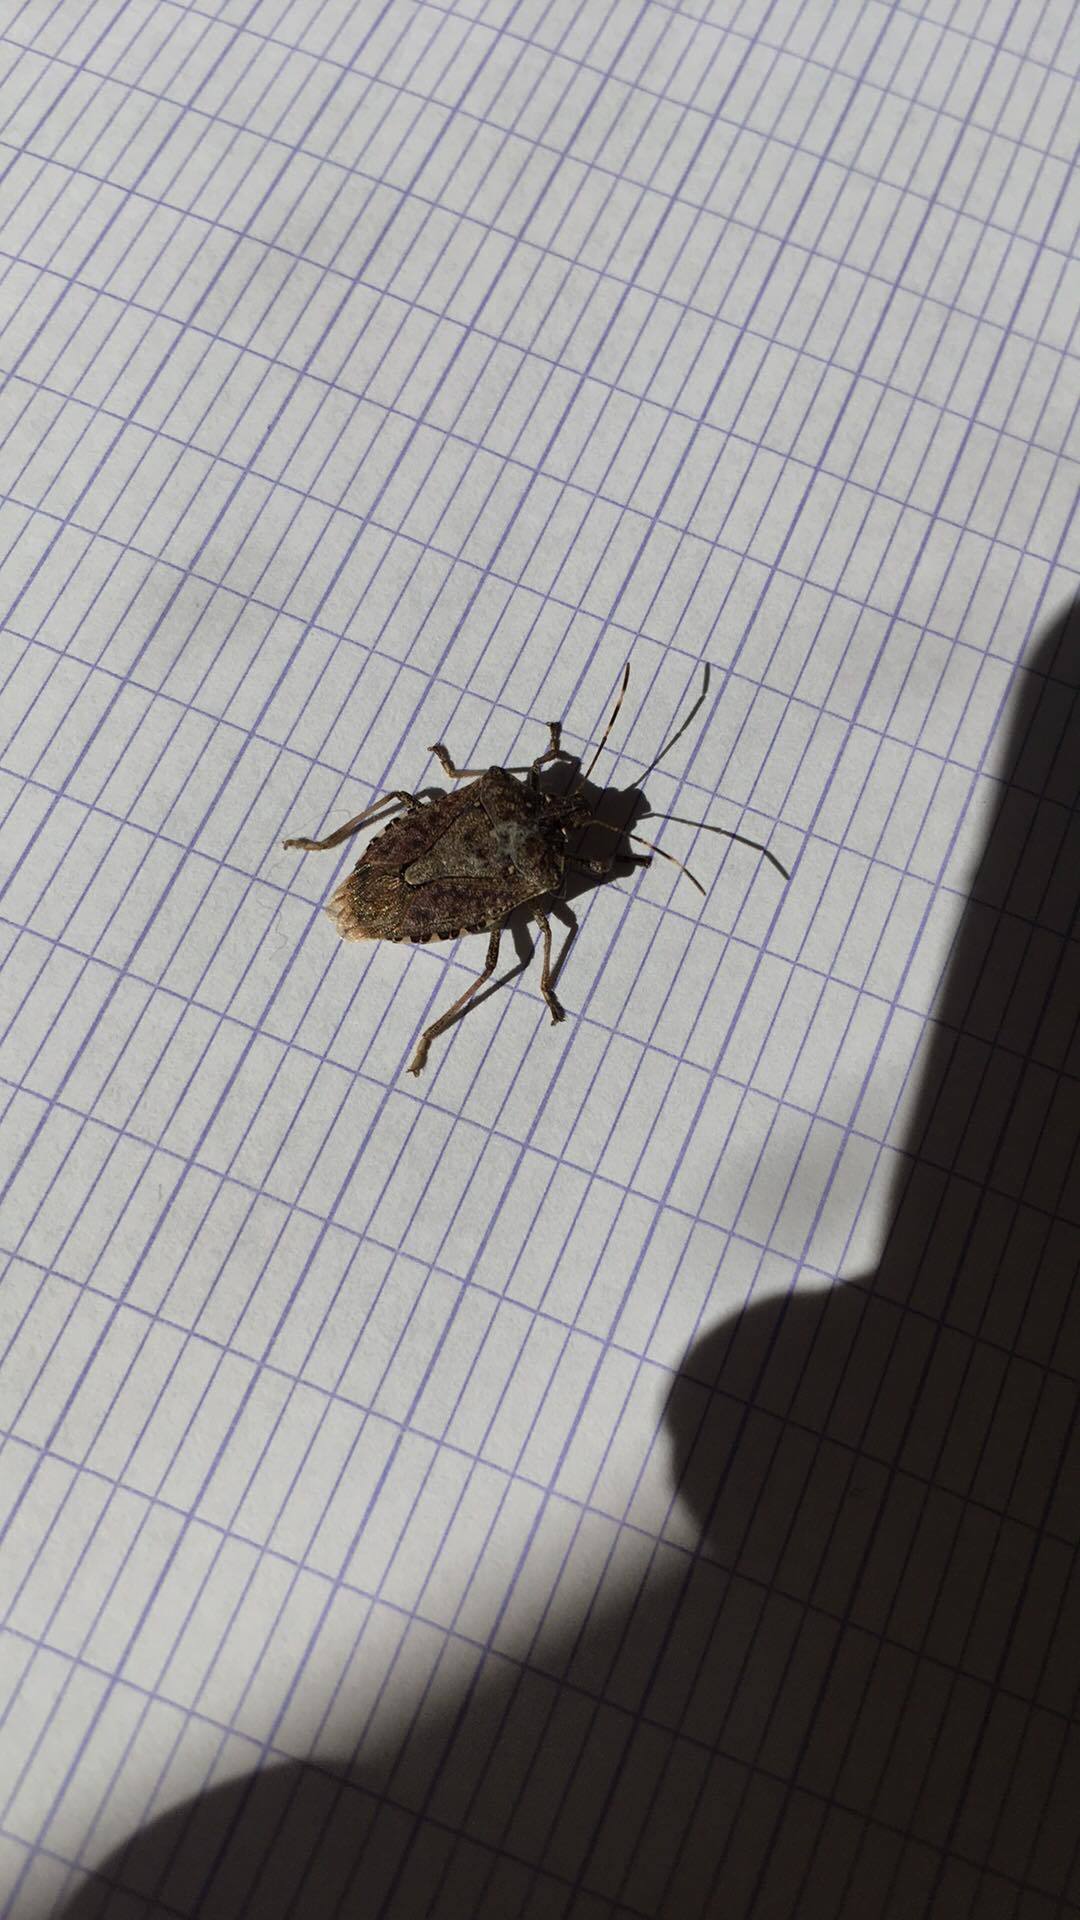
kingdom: Animalia
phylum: Arthropoda
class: Insecta
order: Hemiptera
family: Pentatomidae
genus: Halyomorpha
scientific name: Halyomorpha halys
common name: Brown marmorated stink bug
